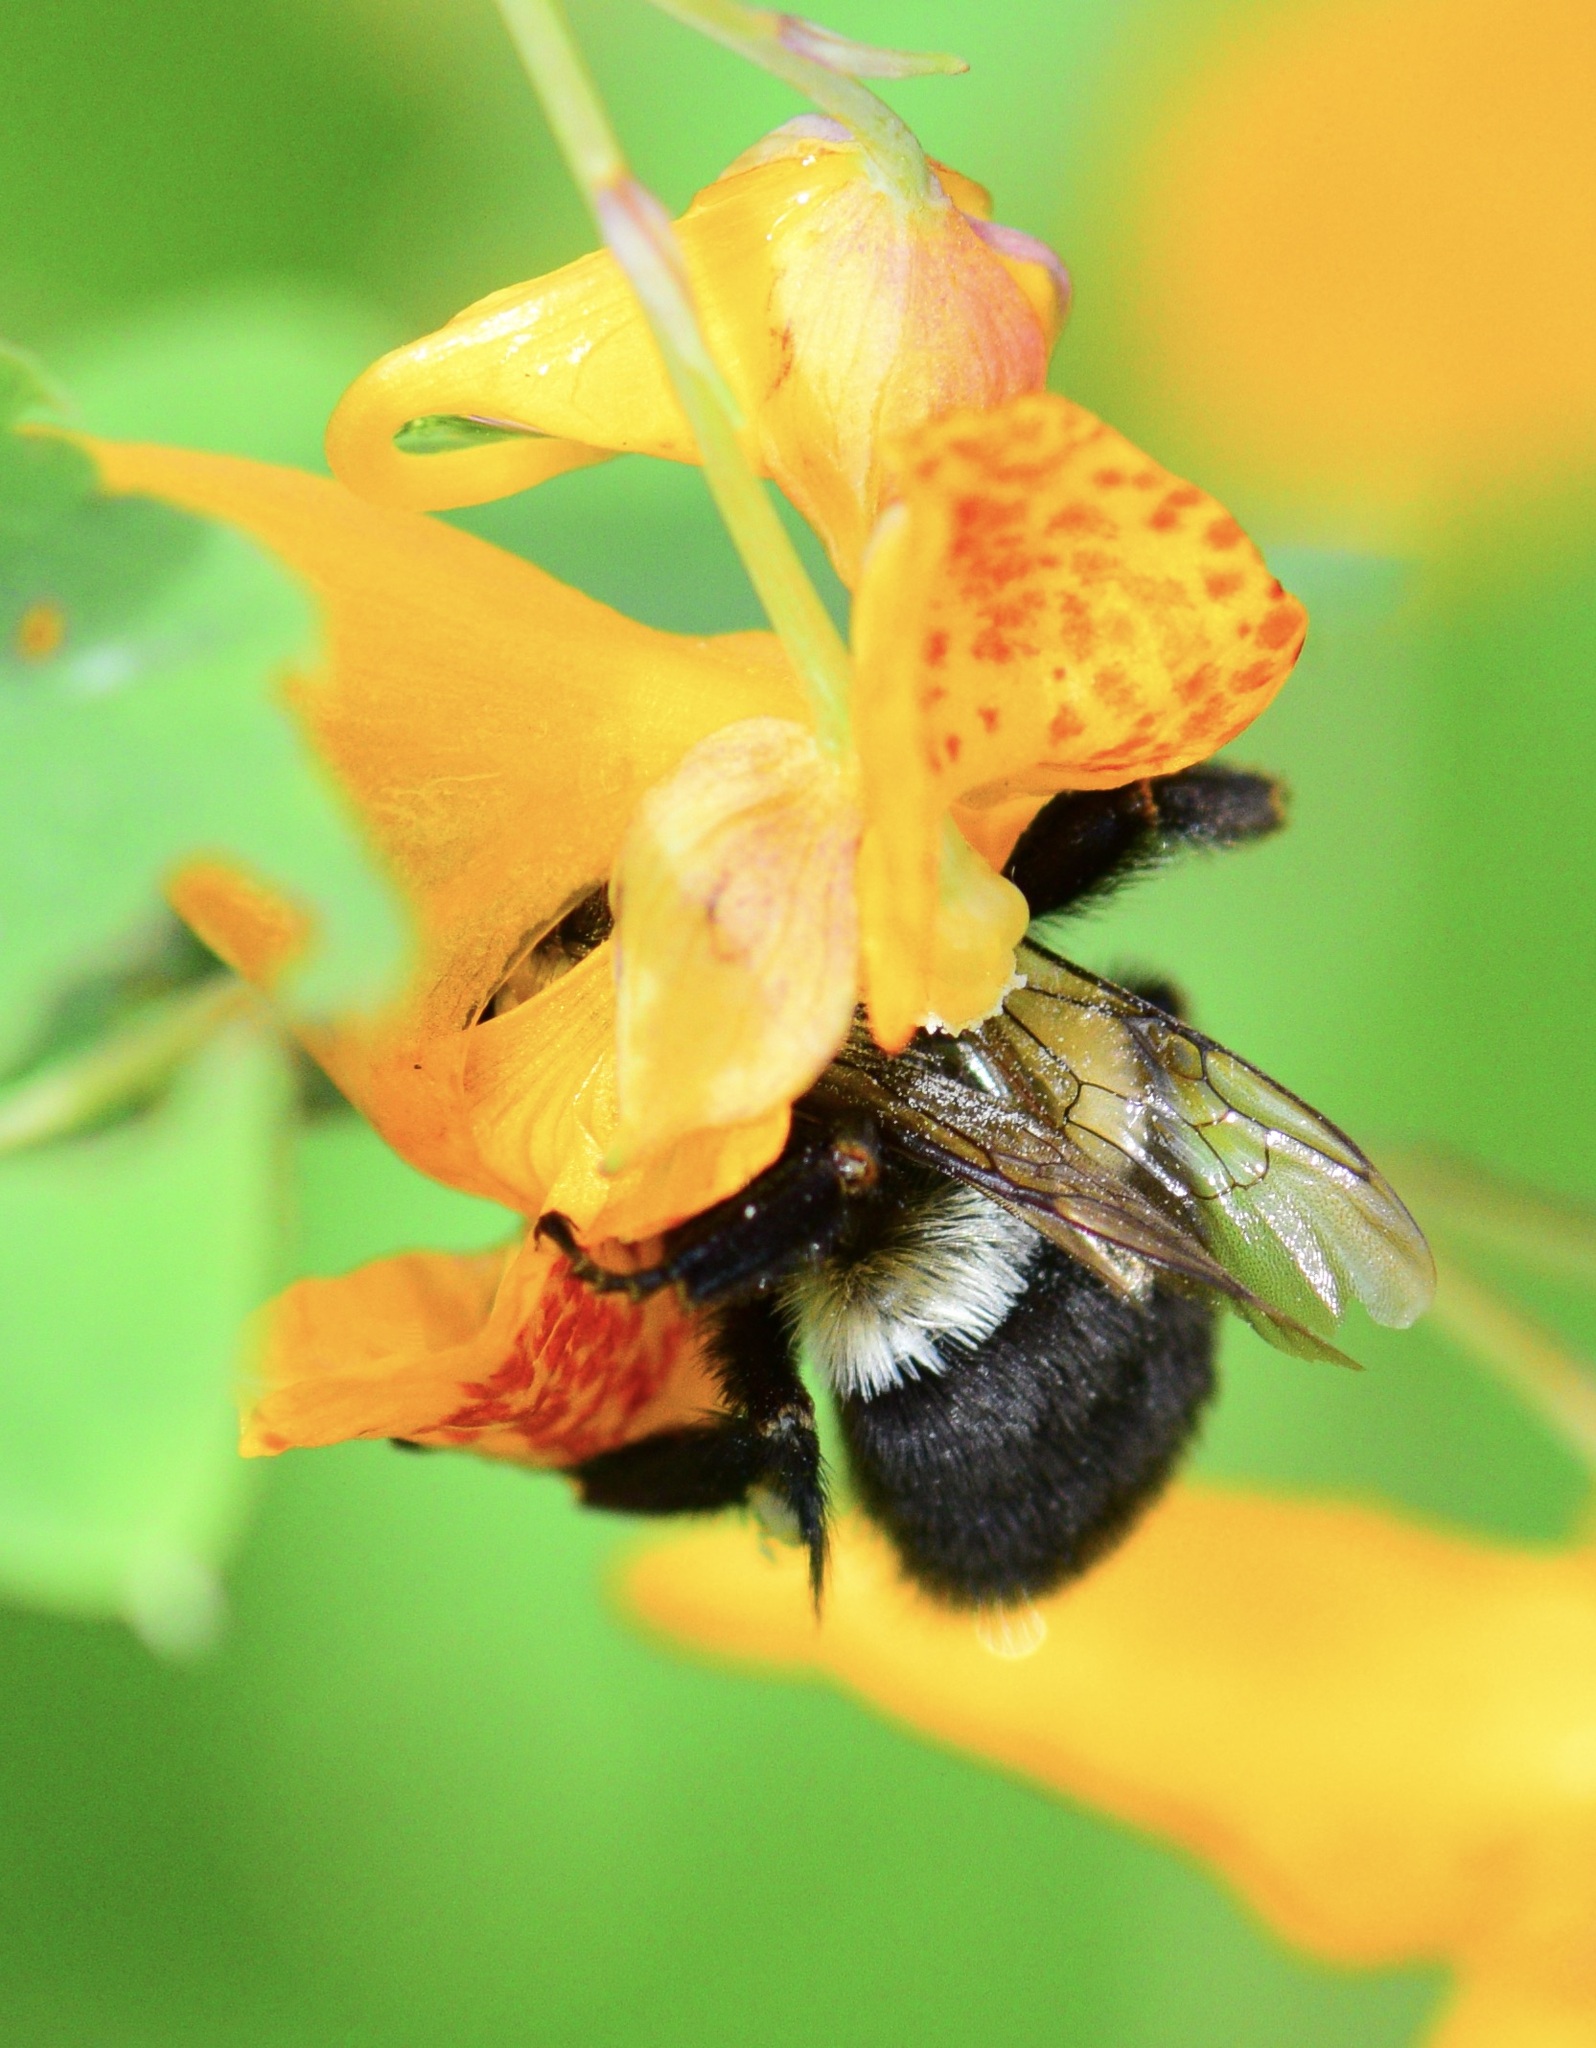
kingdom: Animalia
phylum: Arthropoda
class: Insecta
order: Hymenoptera
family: Apidae
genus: Bombus
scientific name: Bombus impatiens
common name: Common eastern bumble bee
